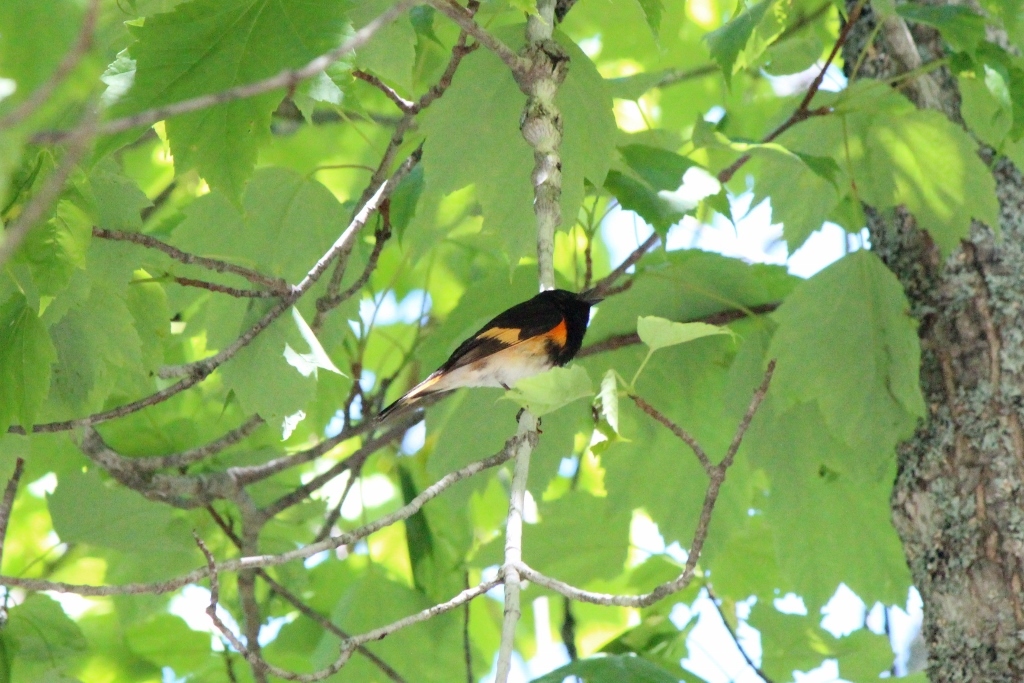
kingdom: Animalia
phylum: Chordata
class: Aves
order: Passeriformes
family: Parulidae
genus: Setophaga
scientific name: Setophaga ruticilla
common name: American redstart
